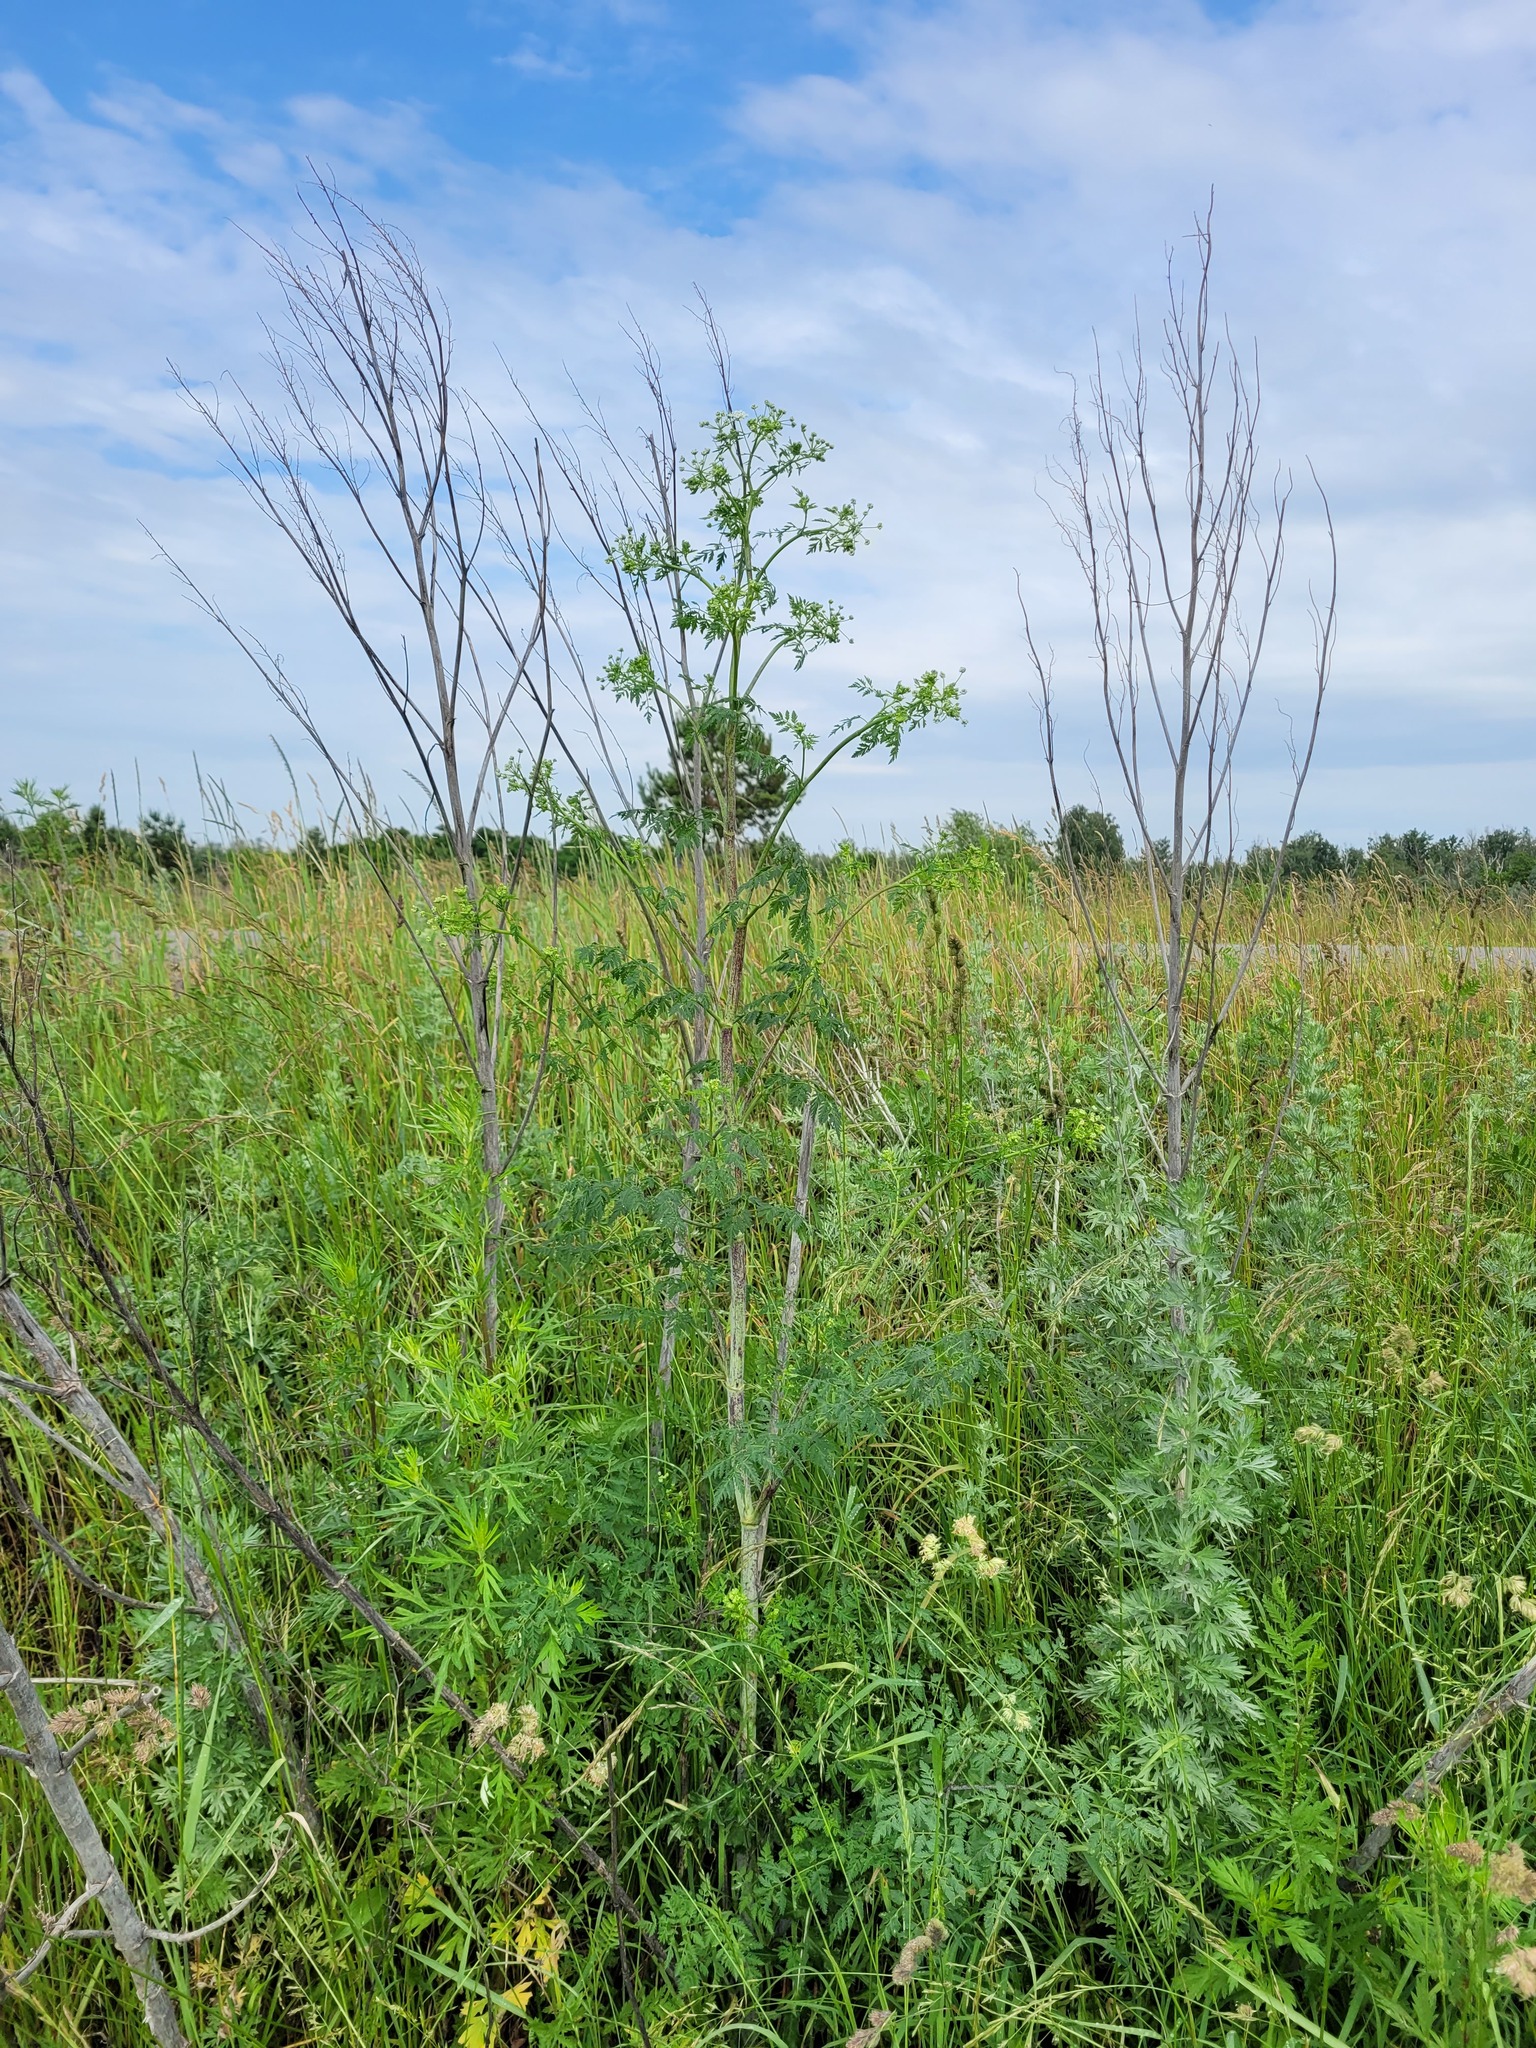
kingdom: Plantae
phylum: Tracheophyta
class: Magnoliopsida
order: Apiales
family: Apiaceae
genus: Conium
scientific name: Conium maculatum
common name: Hemlock
